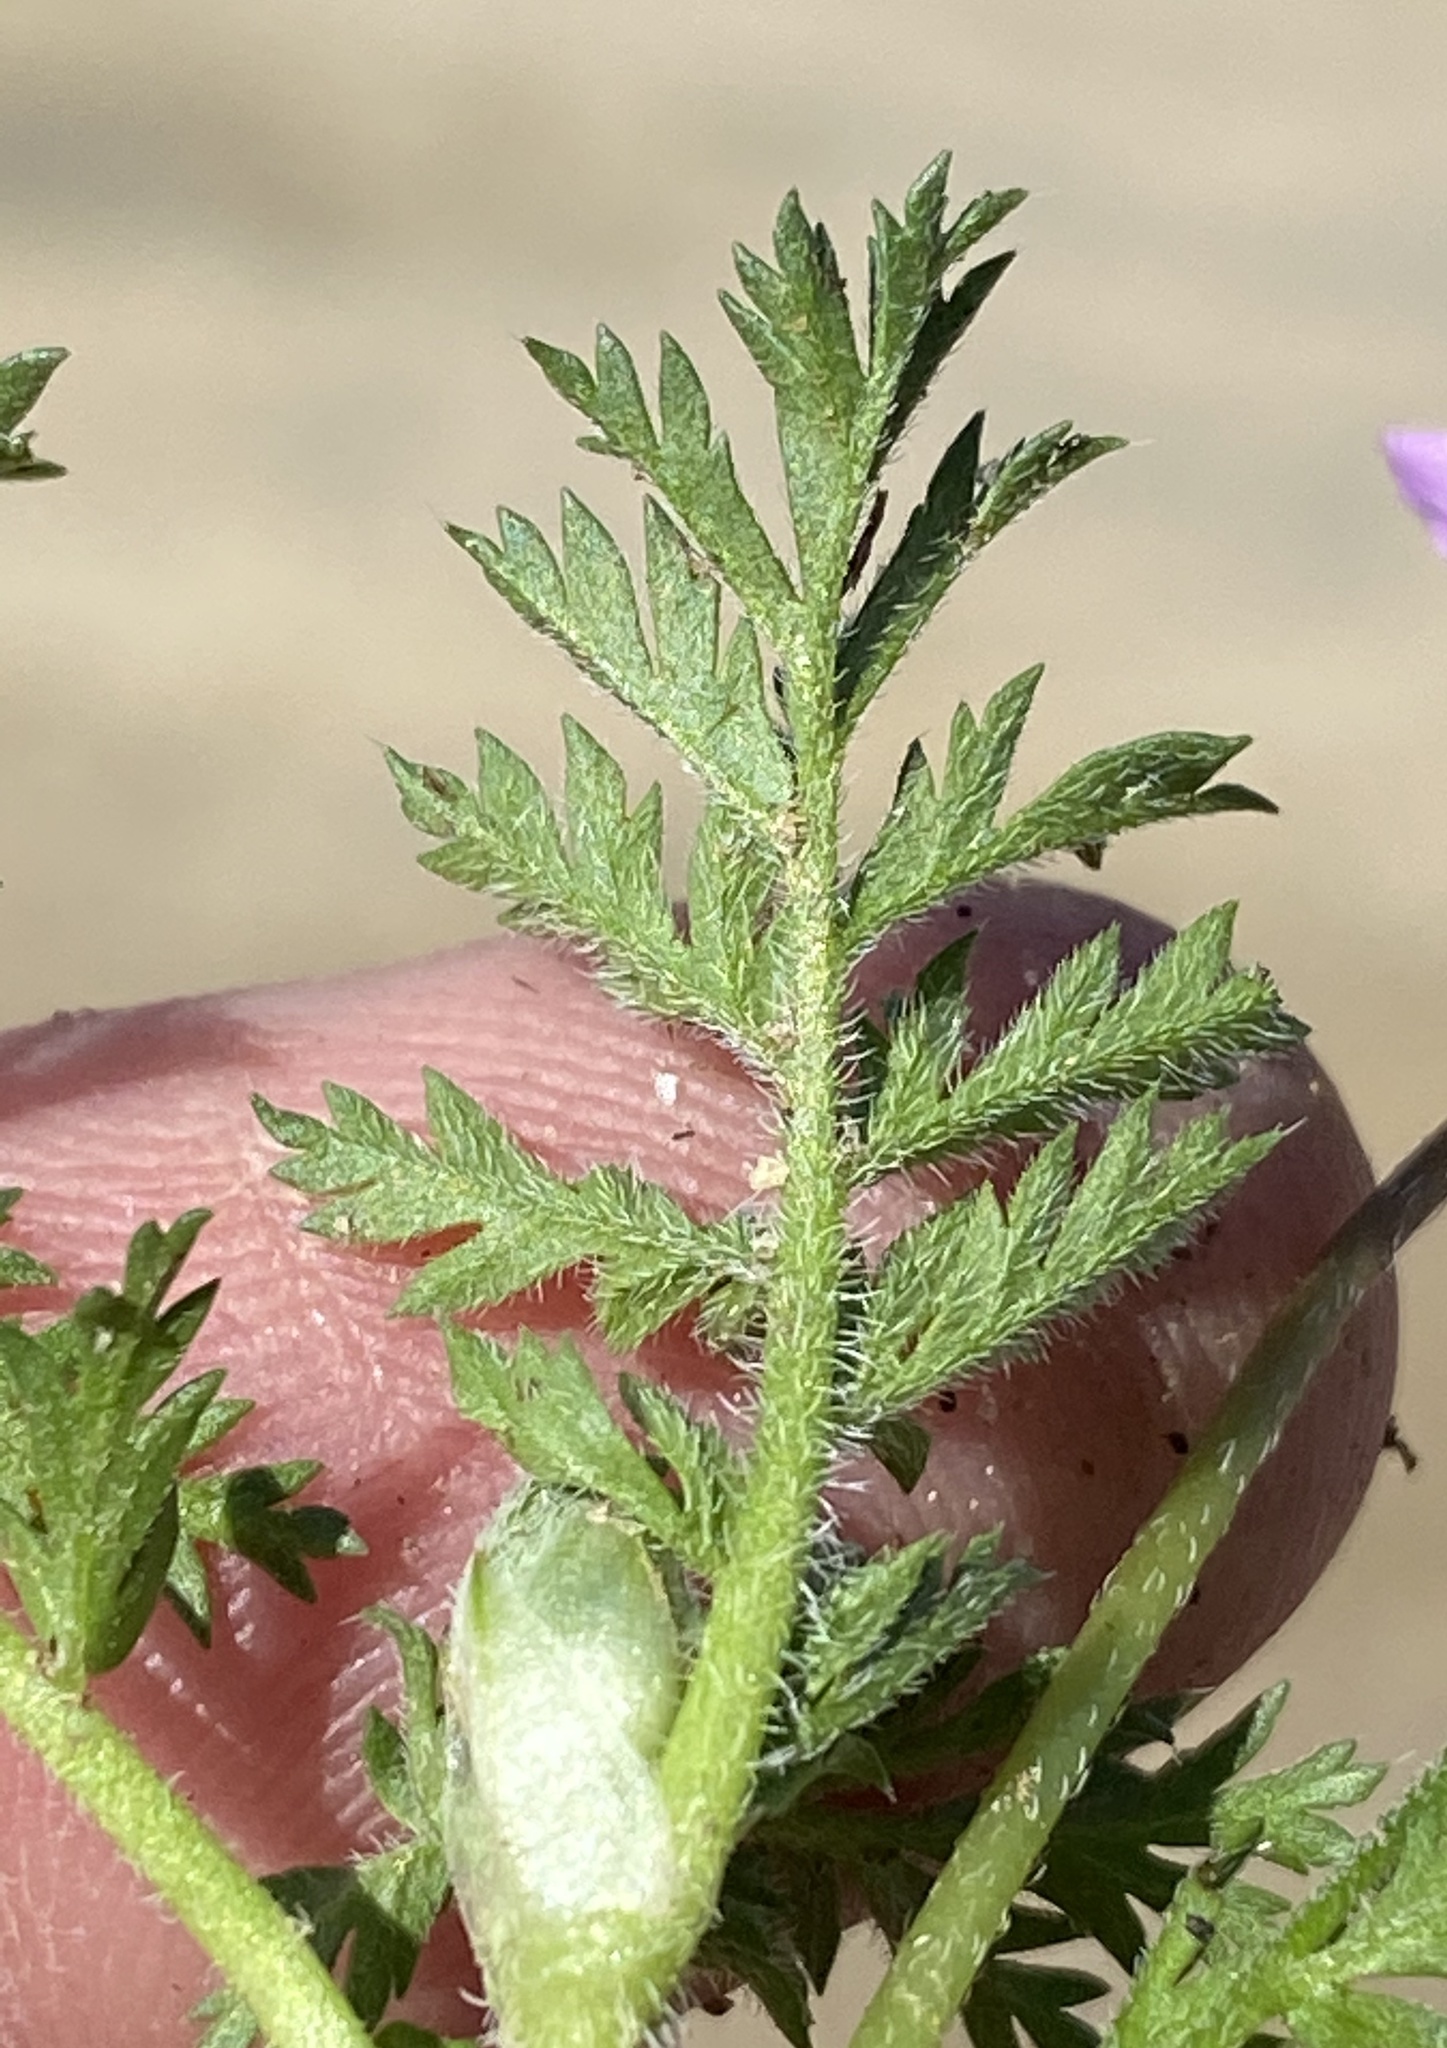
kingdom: Plantae
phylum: Tracheophyta
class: Magnoliopsida
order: Geraniales
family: Geraniaceae
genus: Erodium
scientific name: Erodium cicutarium
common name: Common stork's-bill
